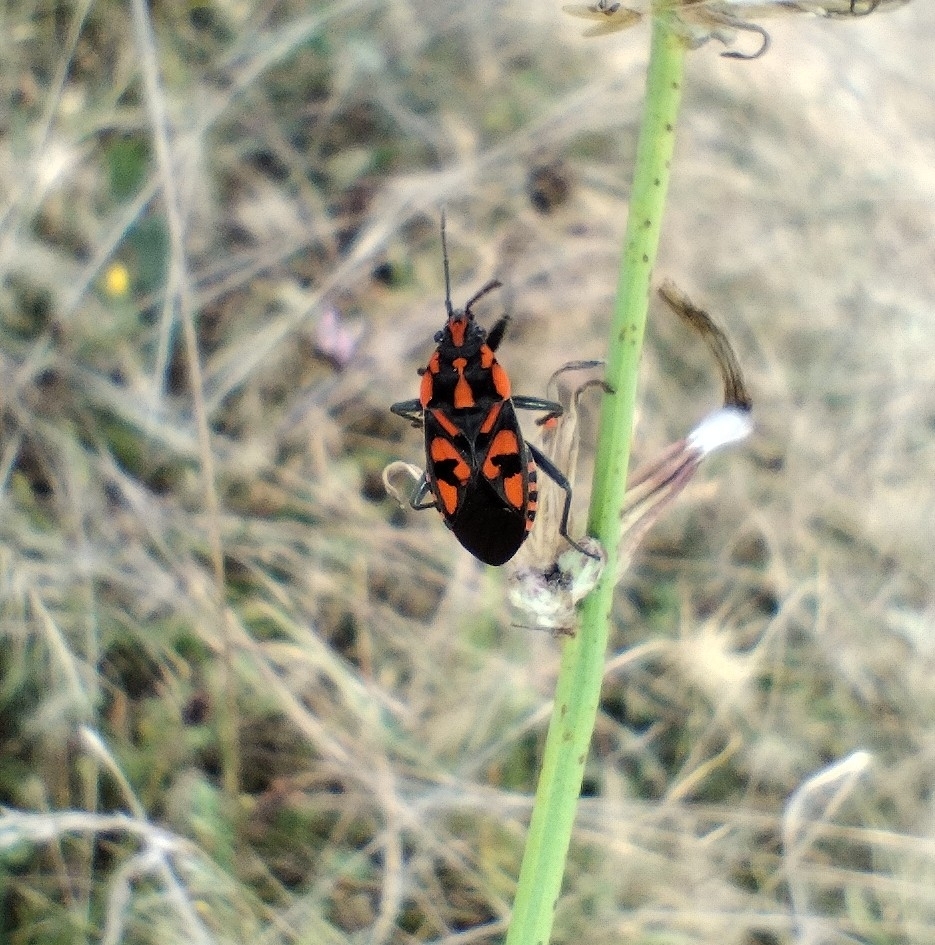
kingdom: Animalia
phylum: Arthropoda
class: Insecta
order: Hemiptera
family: Lygaeidae
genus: Spilostethus
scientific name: Spilostethus saxatilis
